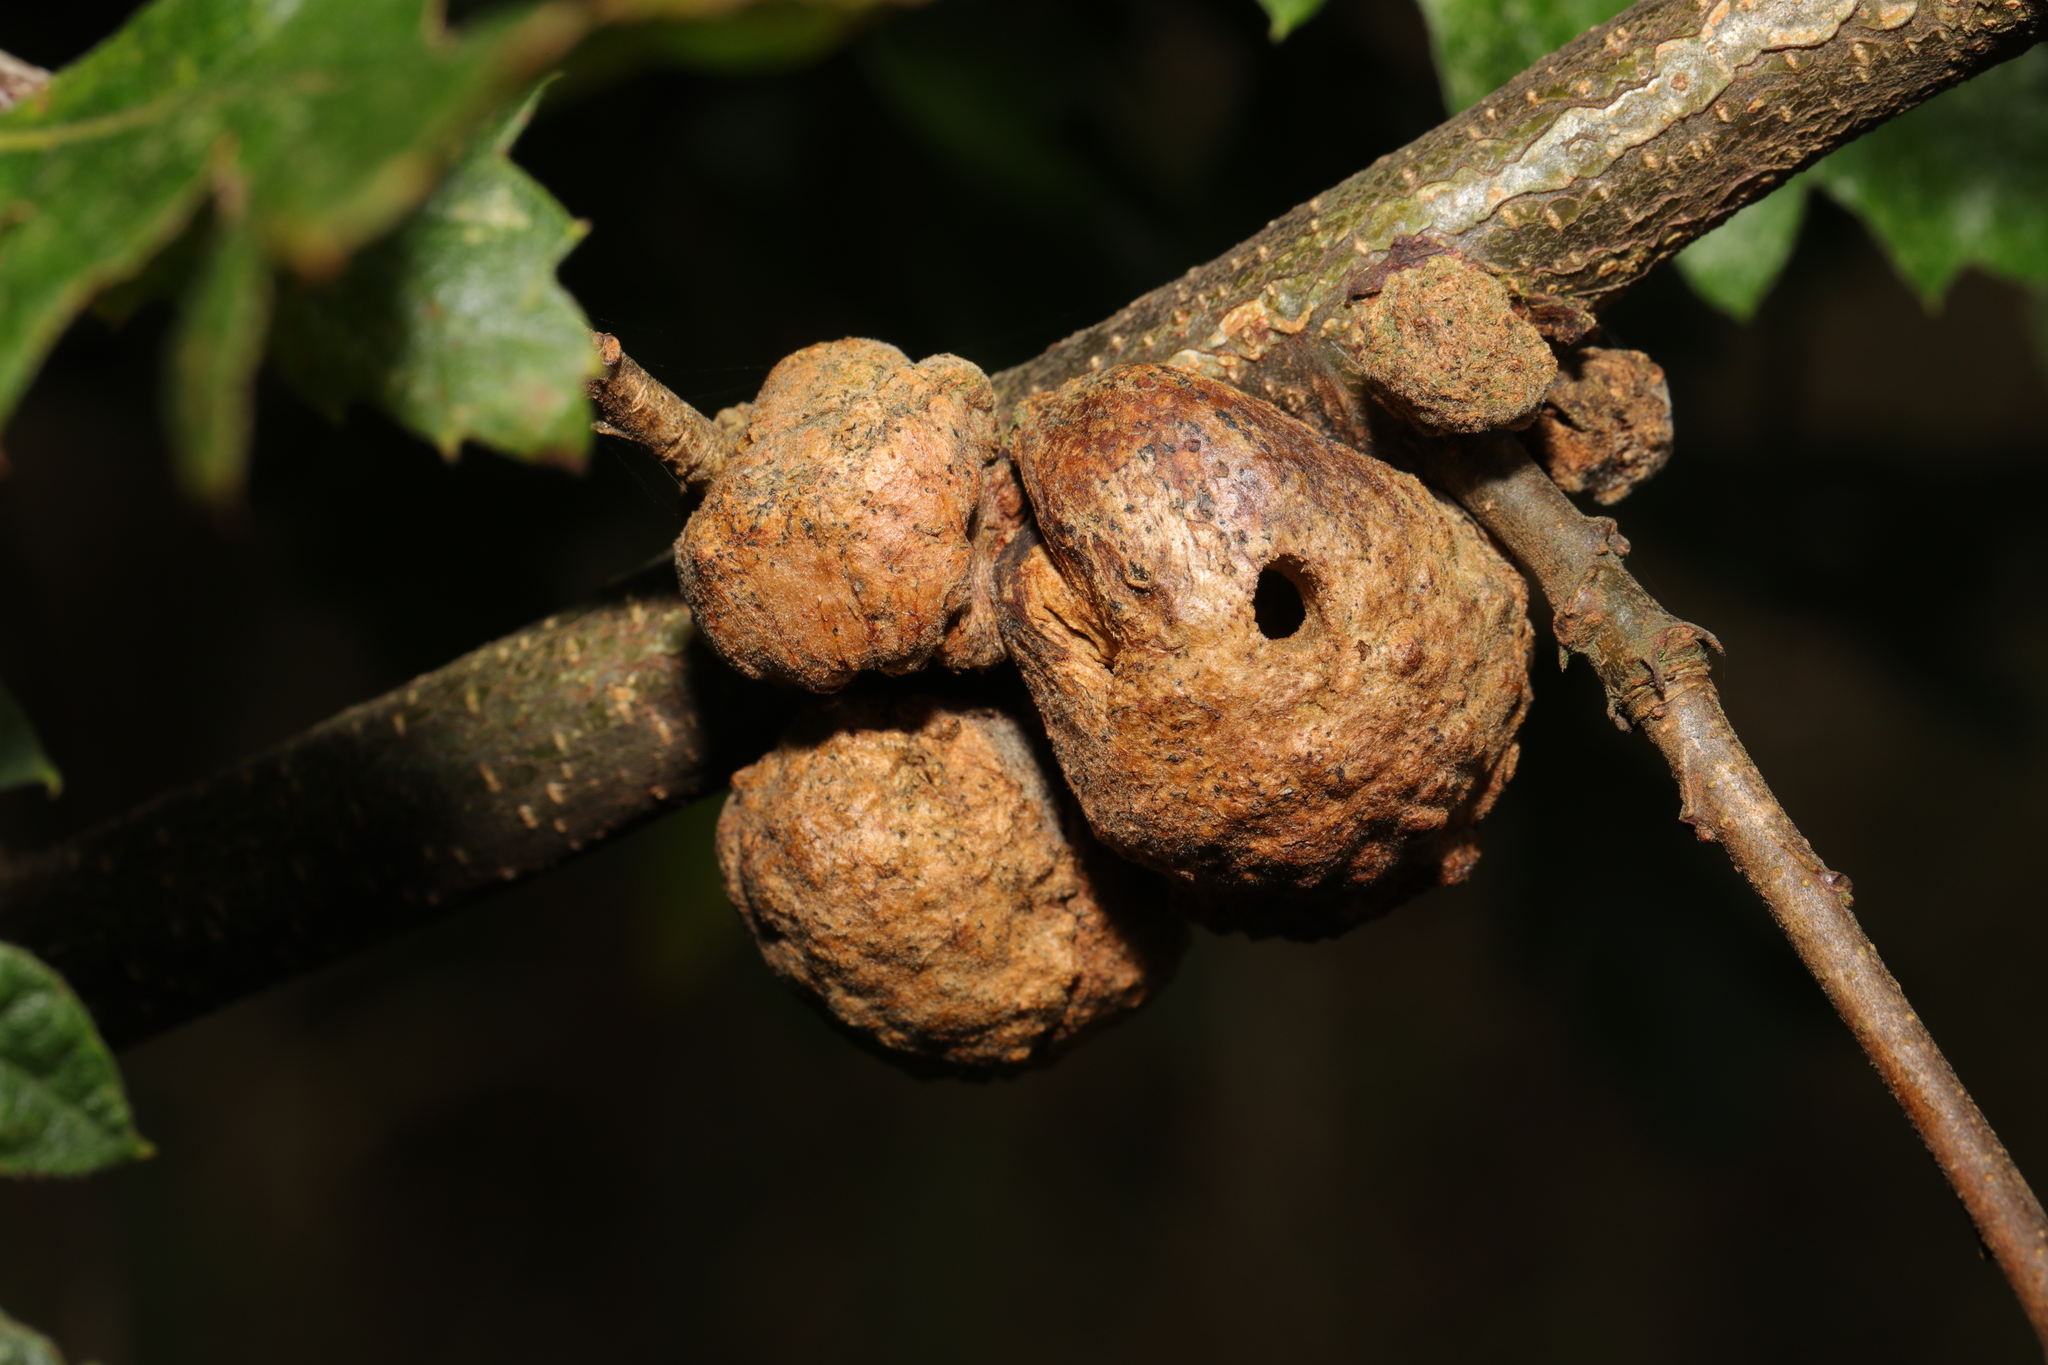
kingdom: Animalia
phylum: Arthropoda
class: Insecta
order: Hymenoptera
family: Cynipidae
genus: Aphelonyx
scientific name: Aphelonyx cerricola
